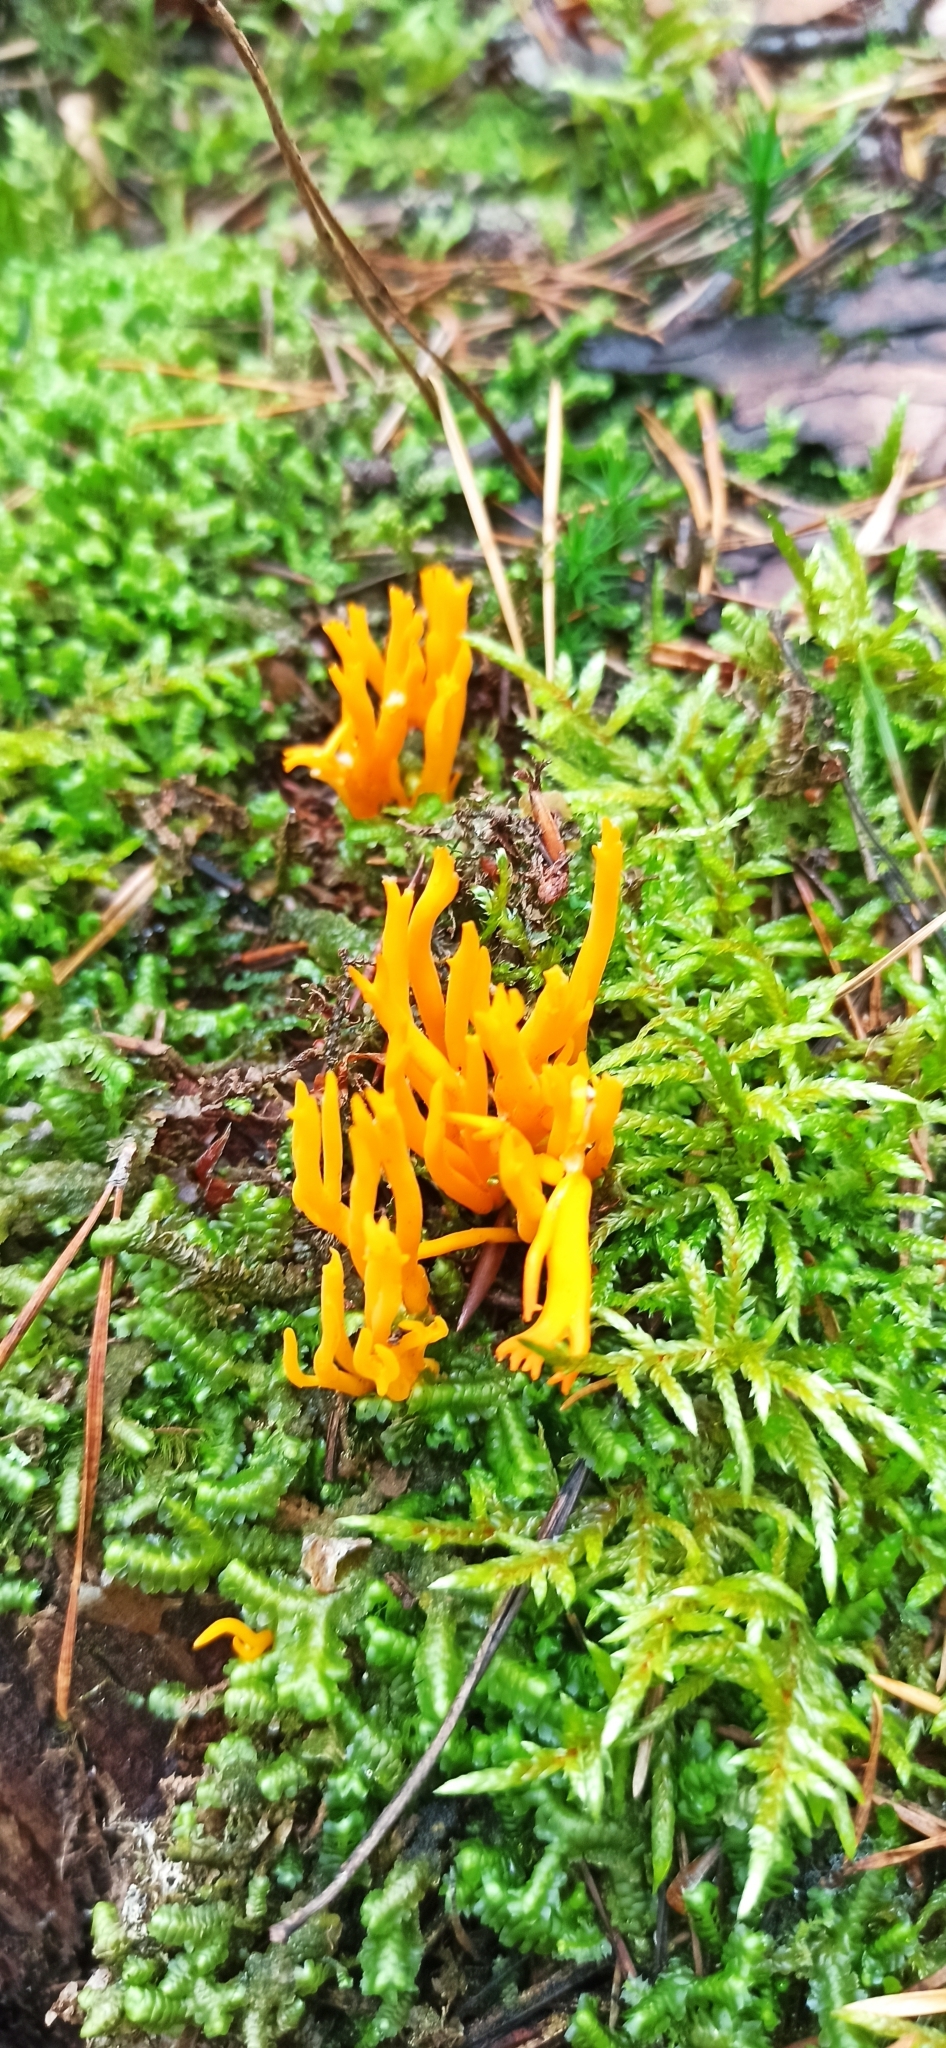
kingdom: Fungi
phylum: Basidiomycota
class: Dacrymycetes
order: Dacrymycetales
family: Dacrymycetaceae
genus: Calocera
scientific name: Calocera viscosa
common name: Yellow stagshorn
